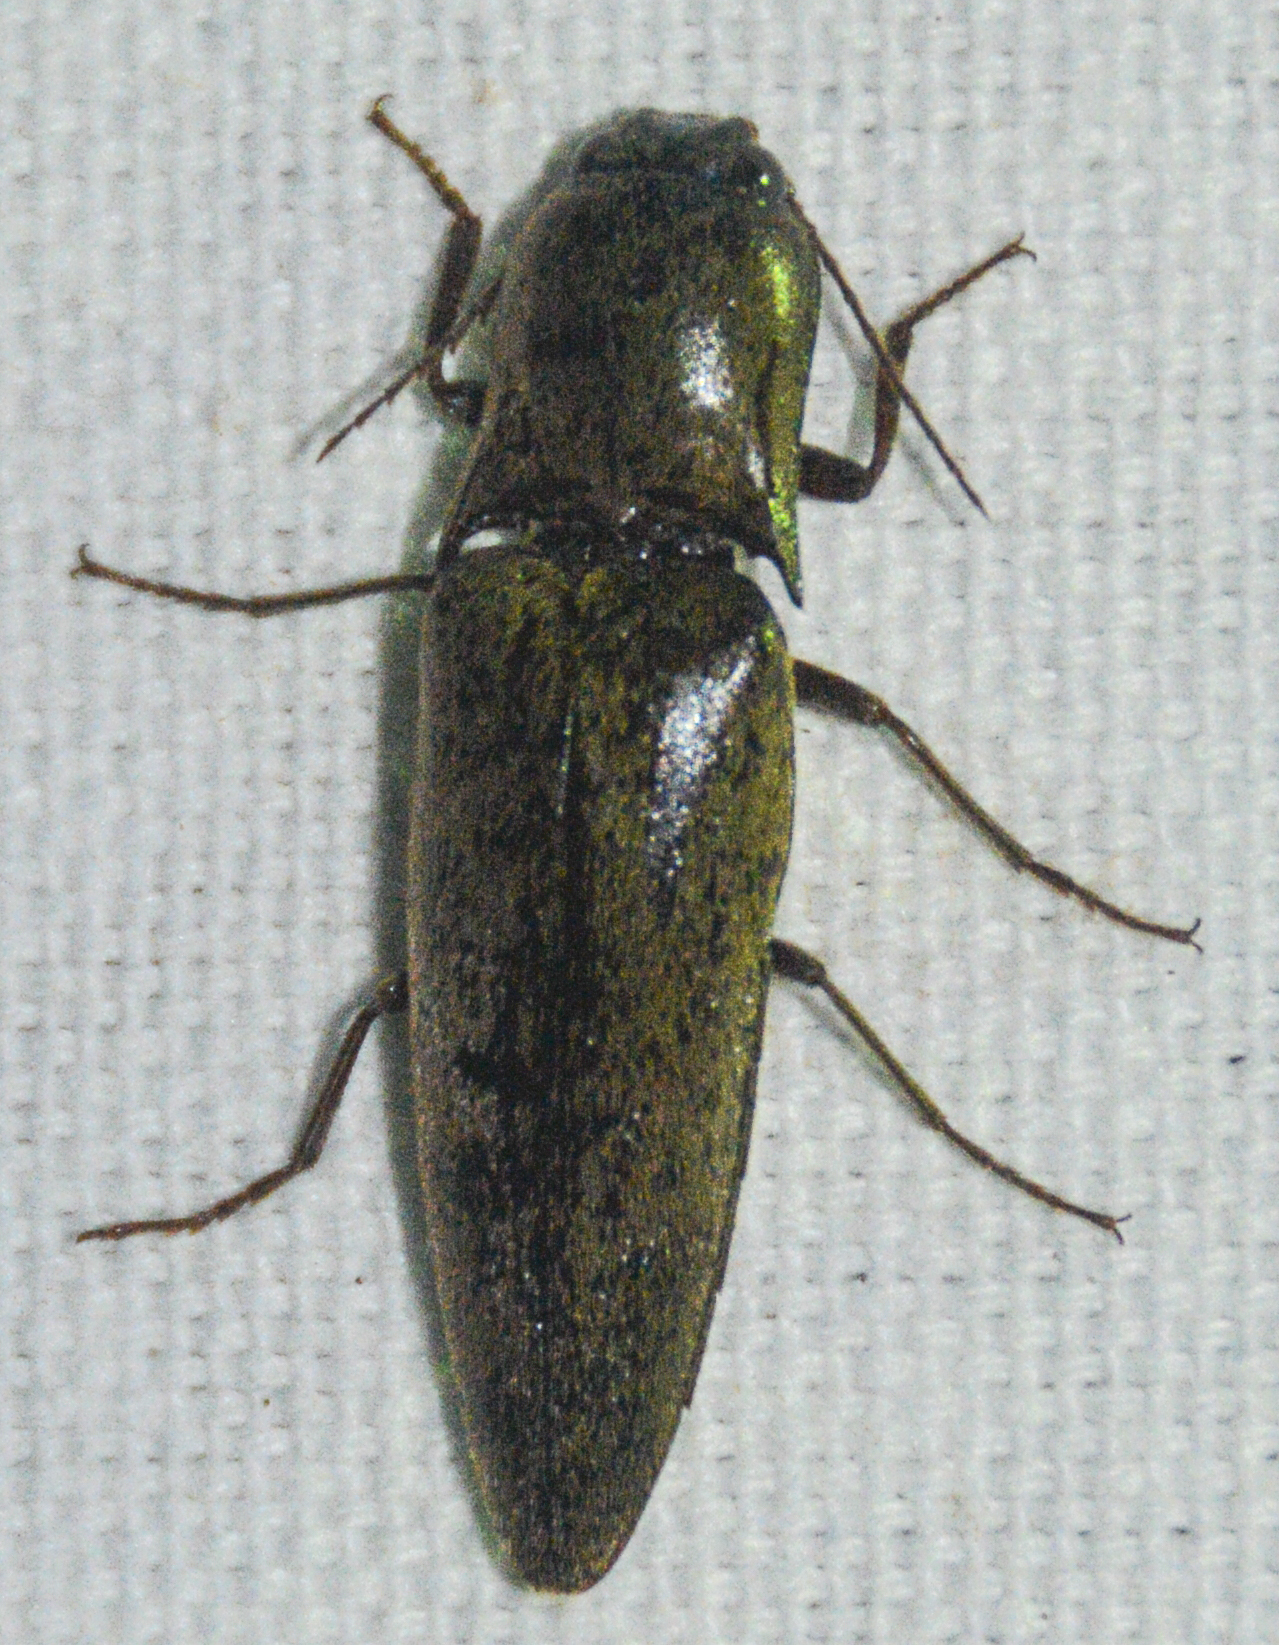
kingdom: Animalia
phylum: Arthropoda
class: Insecta
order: Coleoptera
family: Elateridae
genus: Orthostethus
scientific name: Orthostethus infuscatus
